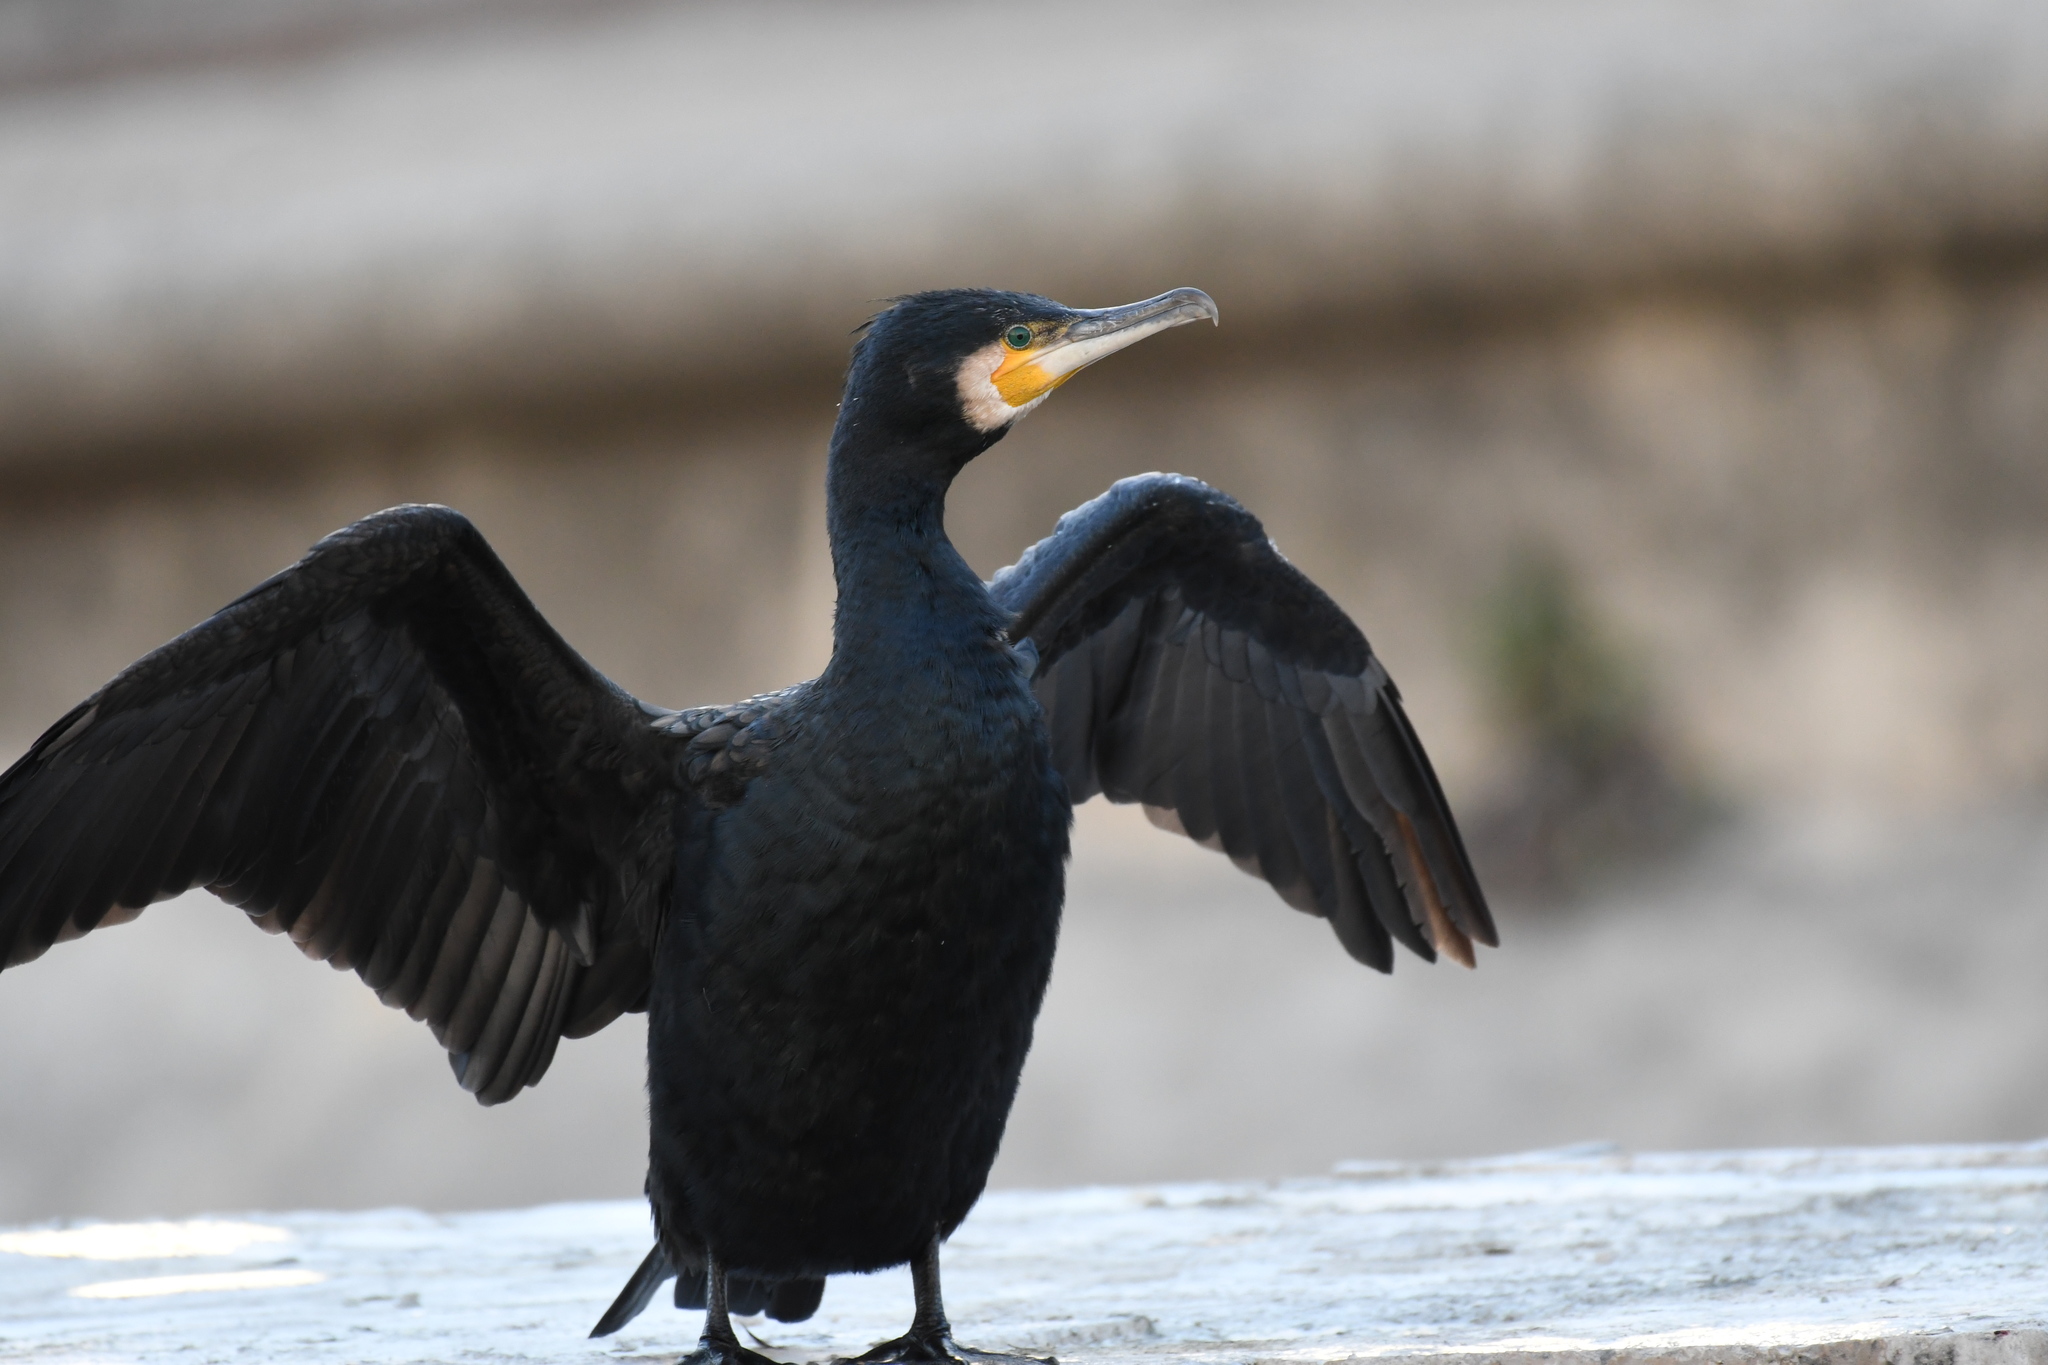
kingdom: Animalia
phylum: Chordata
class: Aves
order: Suliformes
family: Phalacrocoracidae
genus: Phalacrocorax
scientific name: Phalacrocorax carbo
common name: Great cormorant
